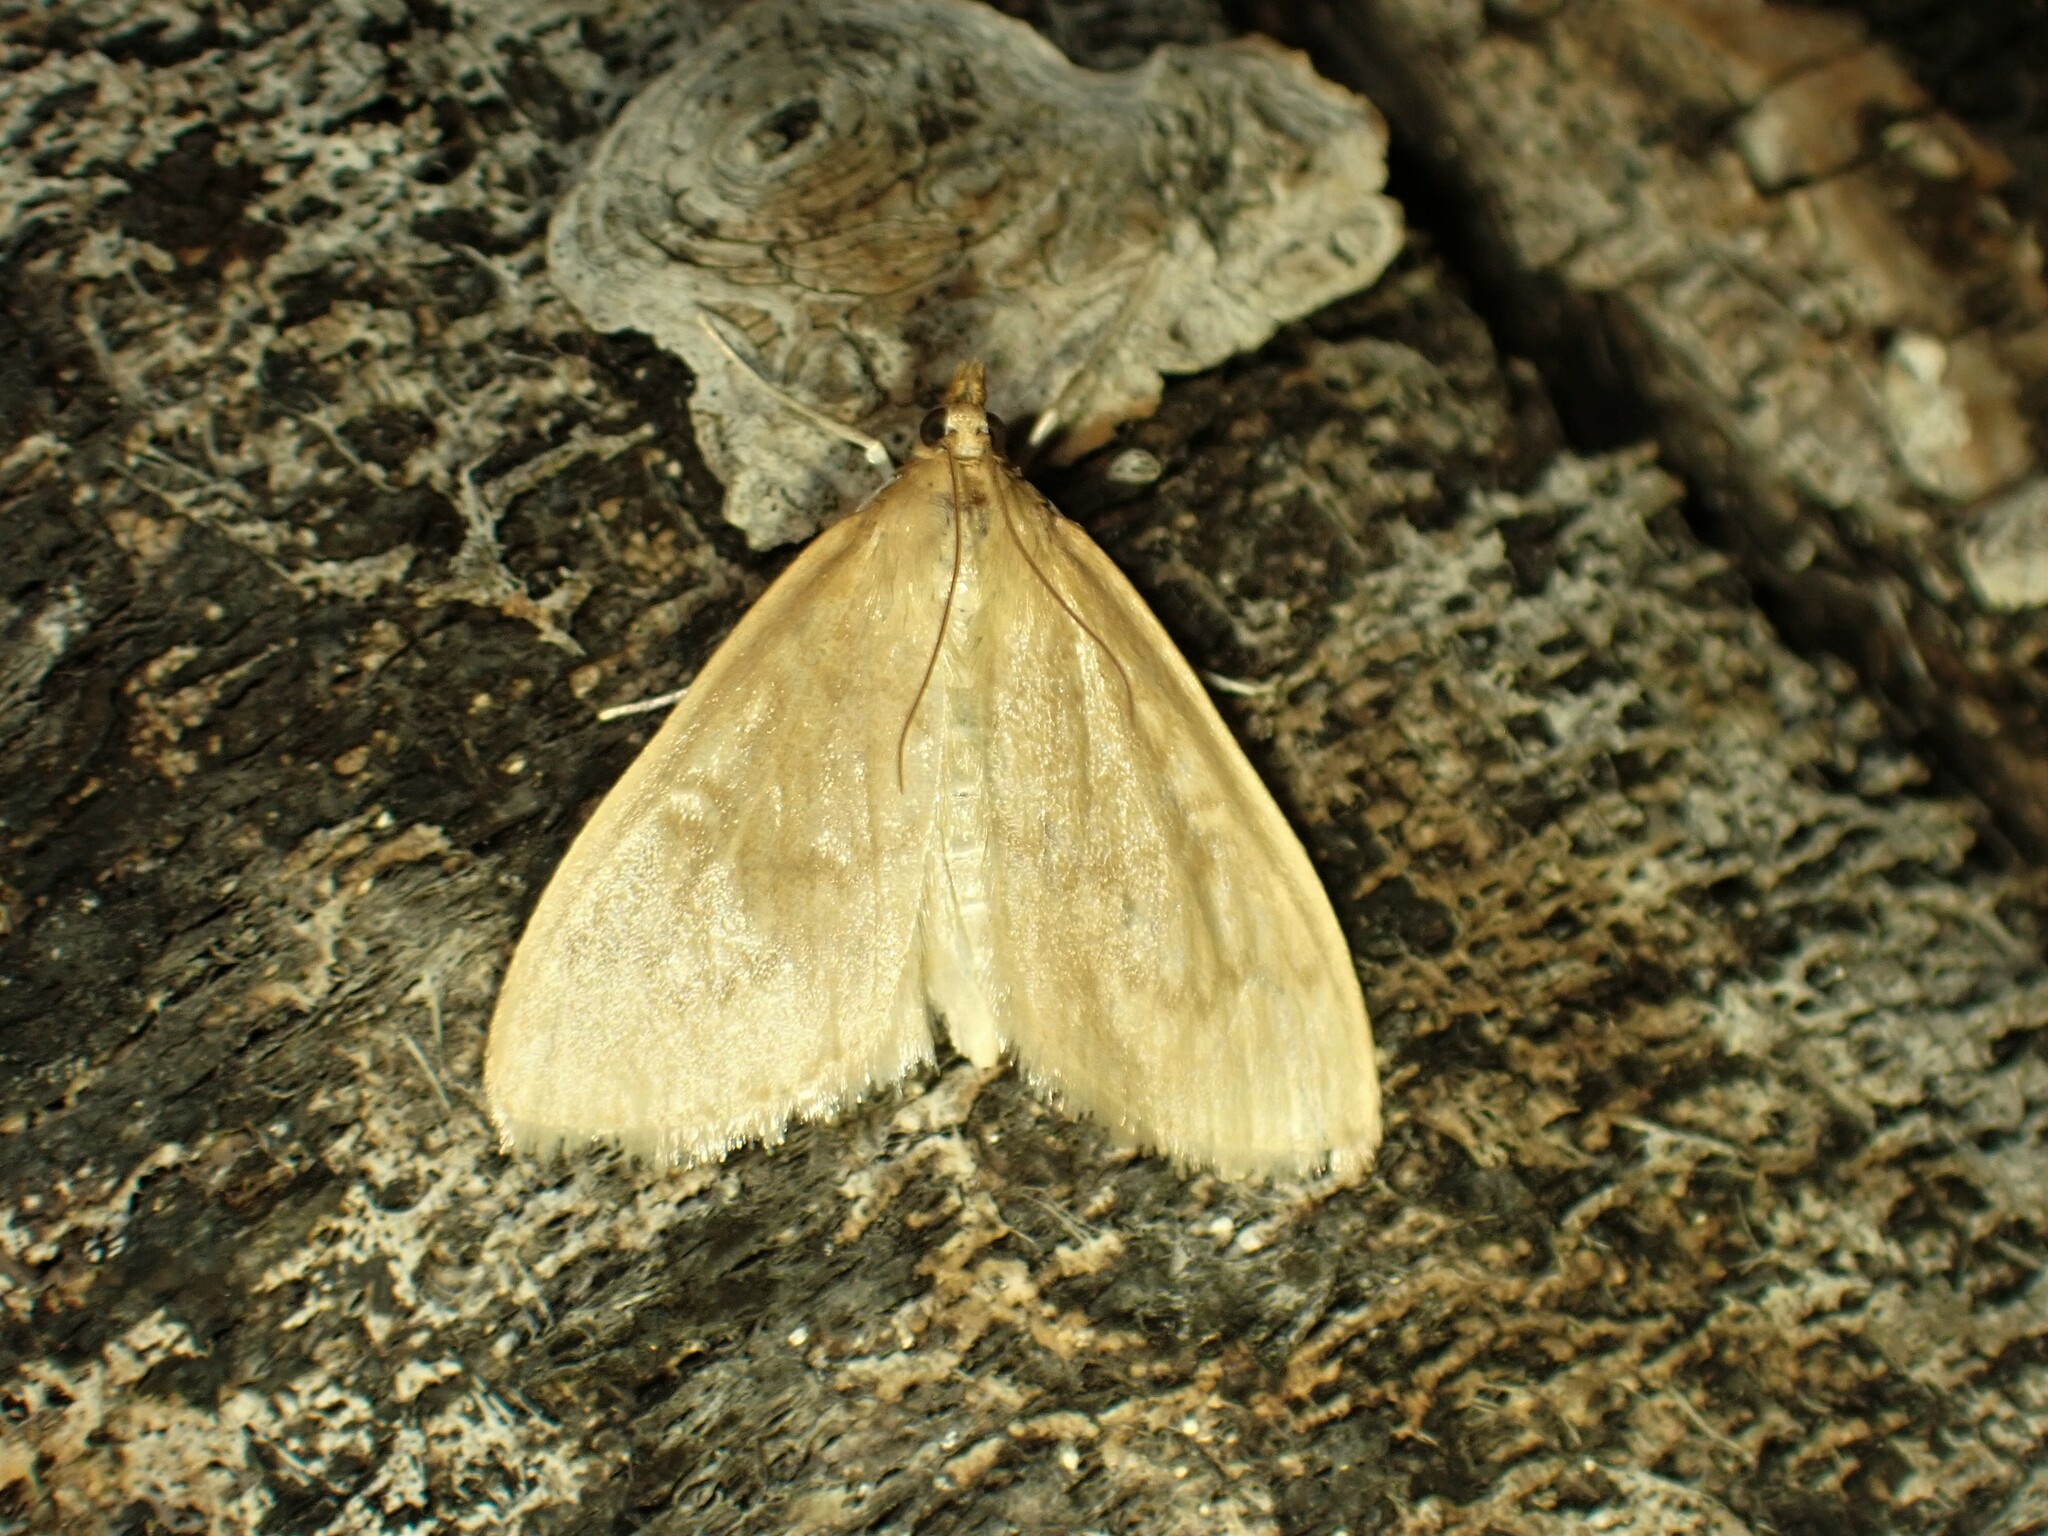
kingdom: Animalia
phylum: Arthropoda
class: Insecta
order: Lepidoptera
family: Crambidae
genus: Anania
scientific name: Anania Framinghamia helvalis
